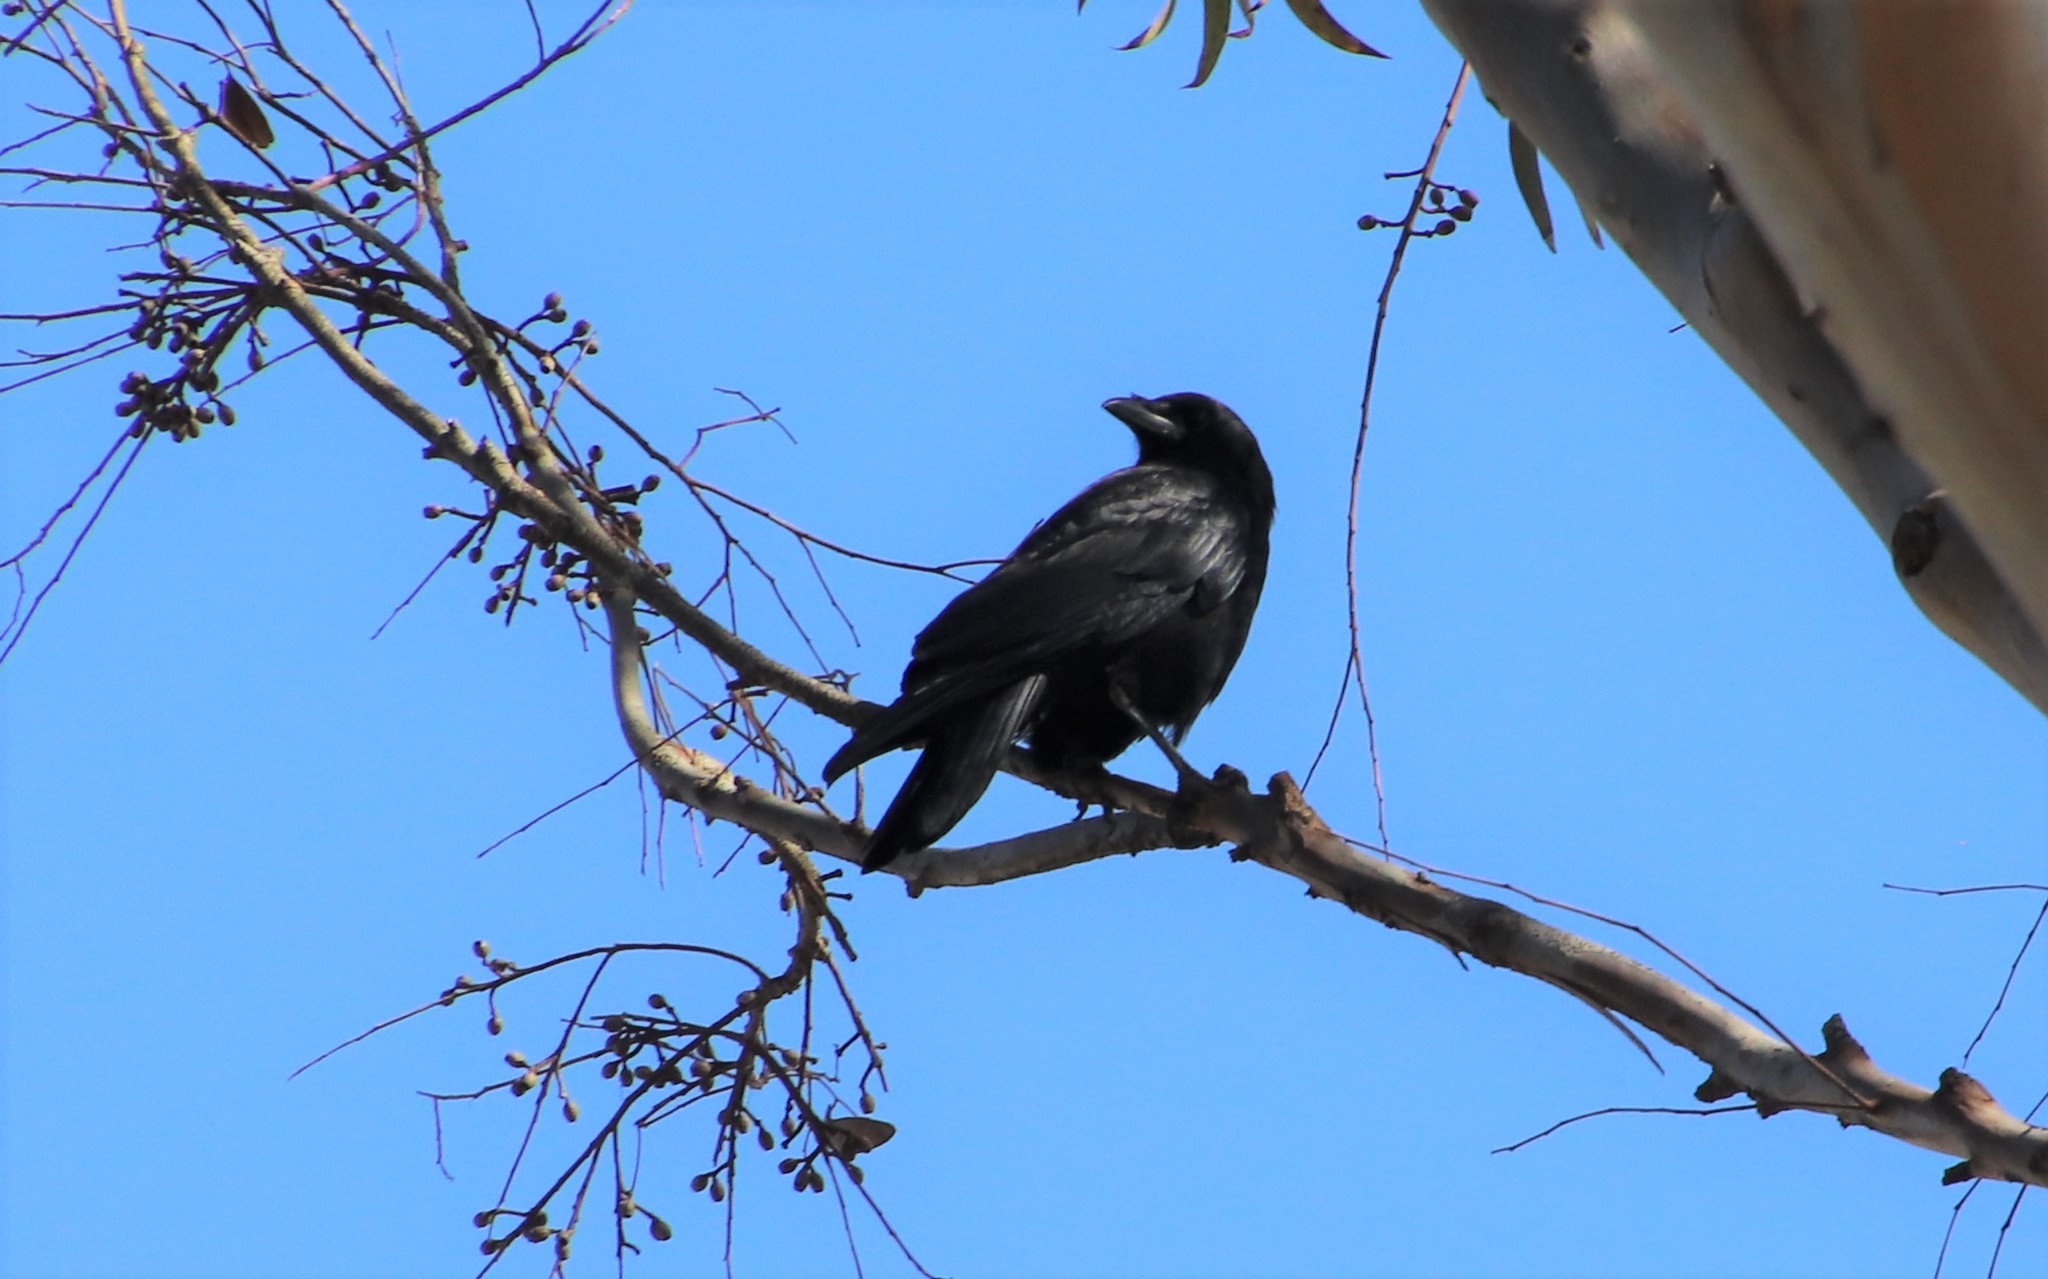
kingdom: Animalia
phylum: Chordata
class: Aves
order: Passeriformes
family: Corvidae
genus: Corvus
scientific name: Corvus brachyrhynchos
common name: American crow
